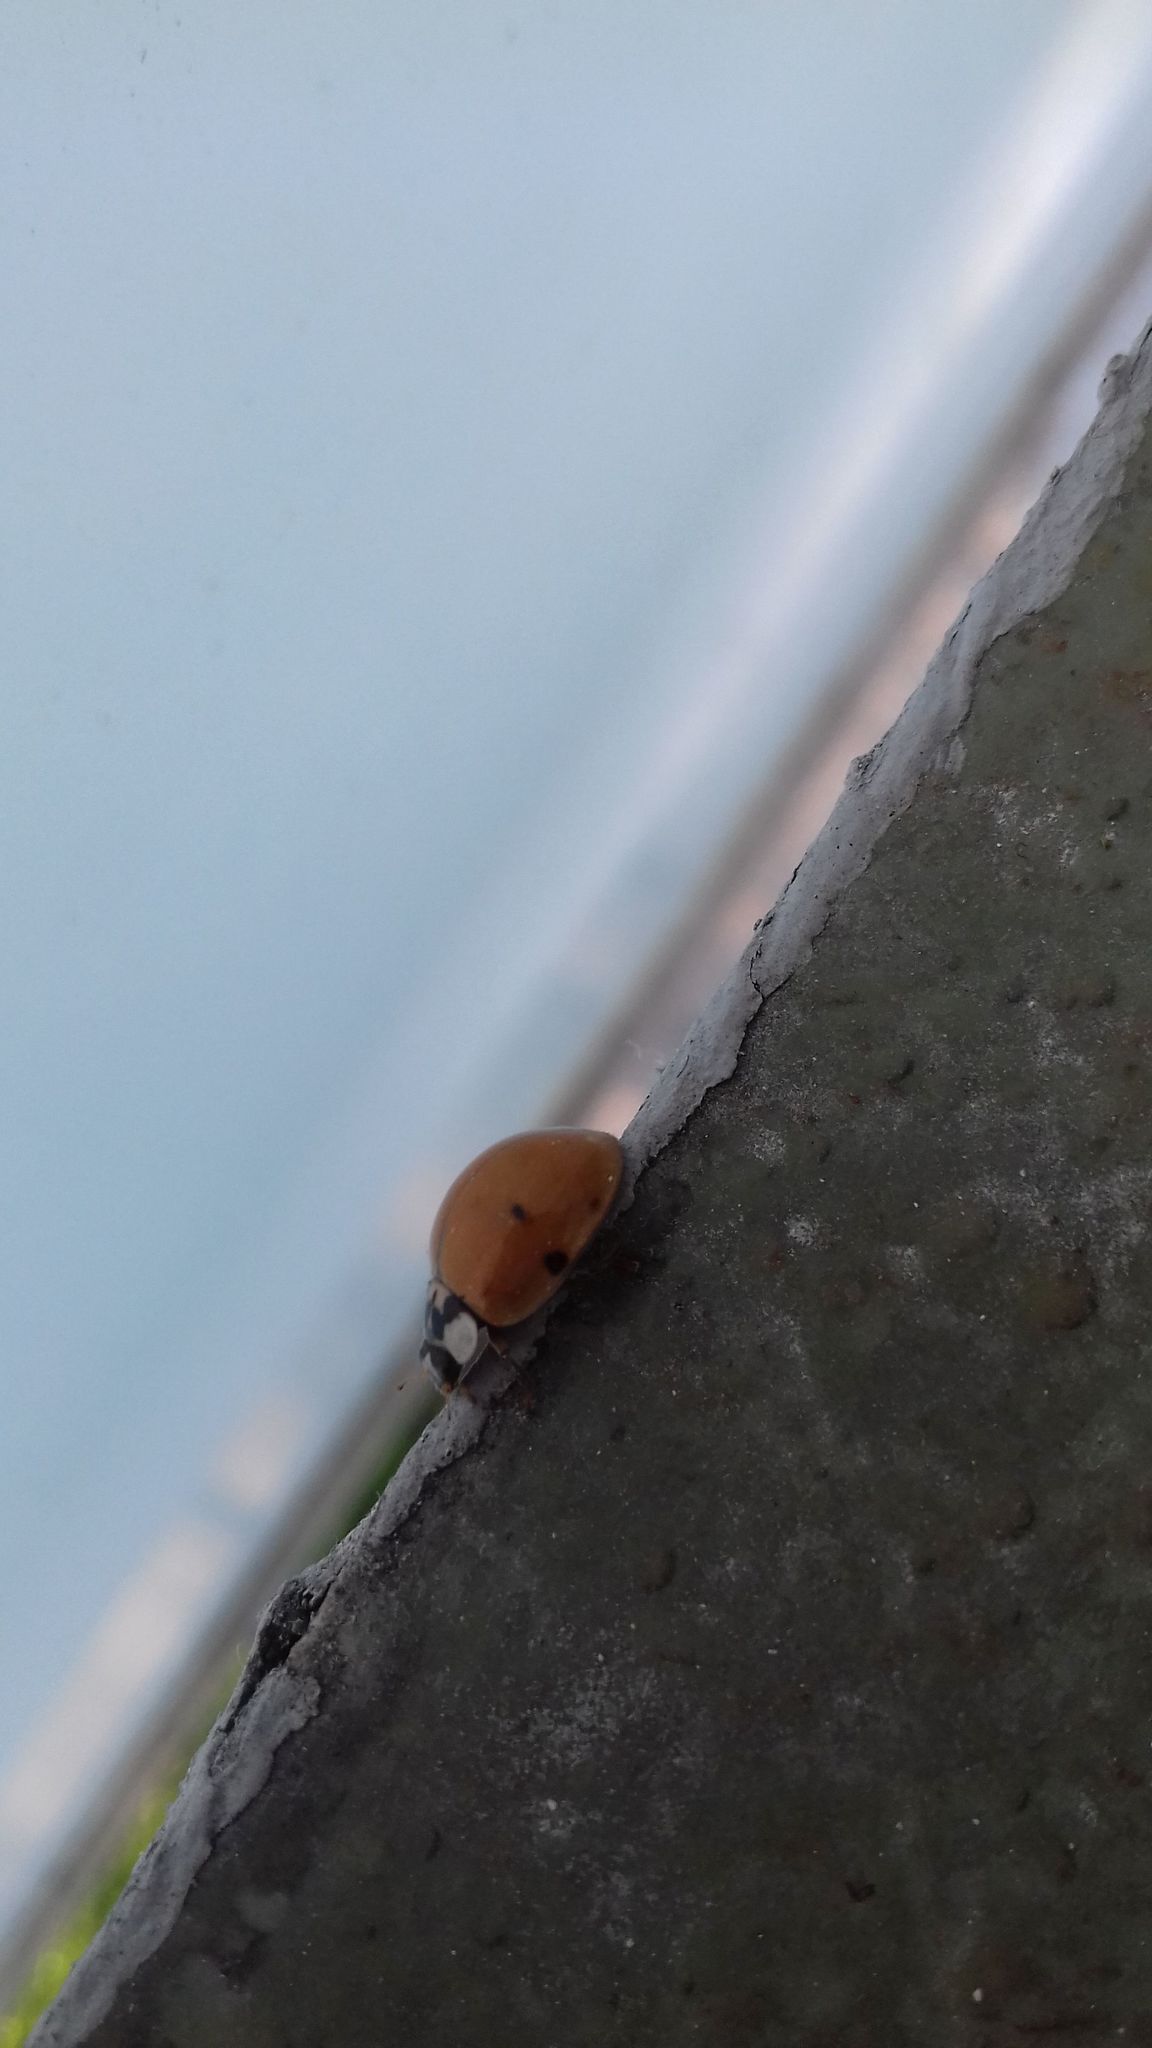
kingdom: Animalia
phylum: Arthropoda
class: Insecta
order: Coleoptera
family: Coccinellidae
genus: Harmonia
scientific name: Harmonia axyridis
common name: Harlequin ladybird
